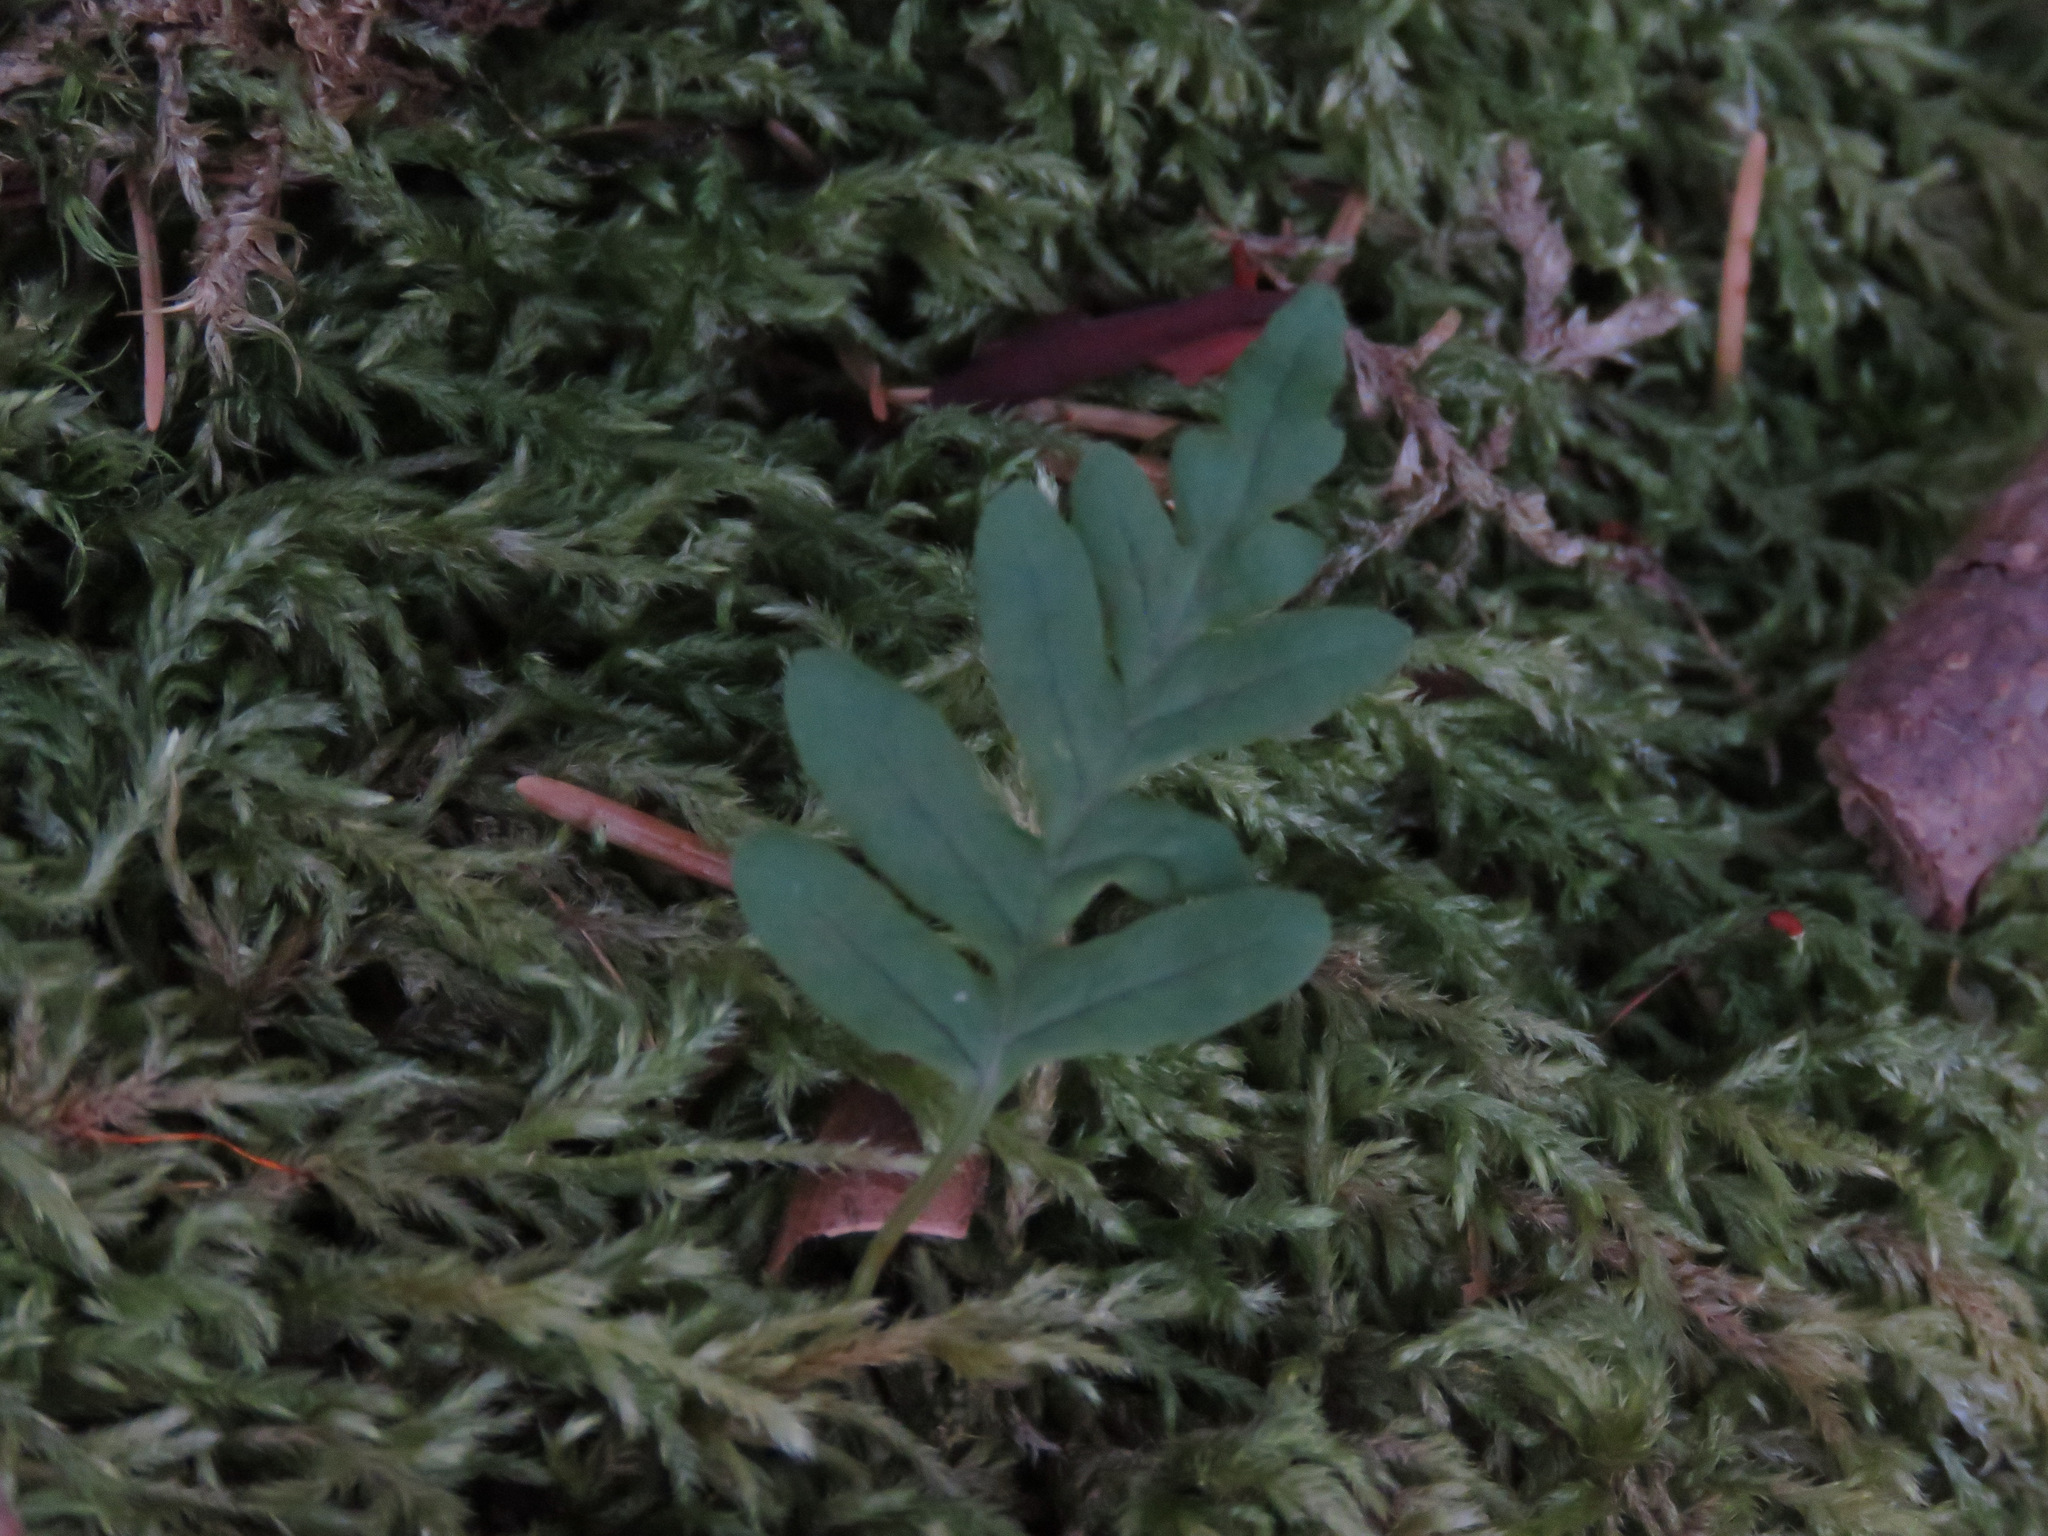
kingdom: Plantae
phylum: Tracheophyta
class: Polypodiopsida
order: Polypodiales
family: Polypodiaceae
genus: Polypodium
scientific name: Polypodium glycyrrhiza
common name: Licorice fern
